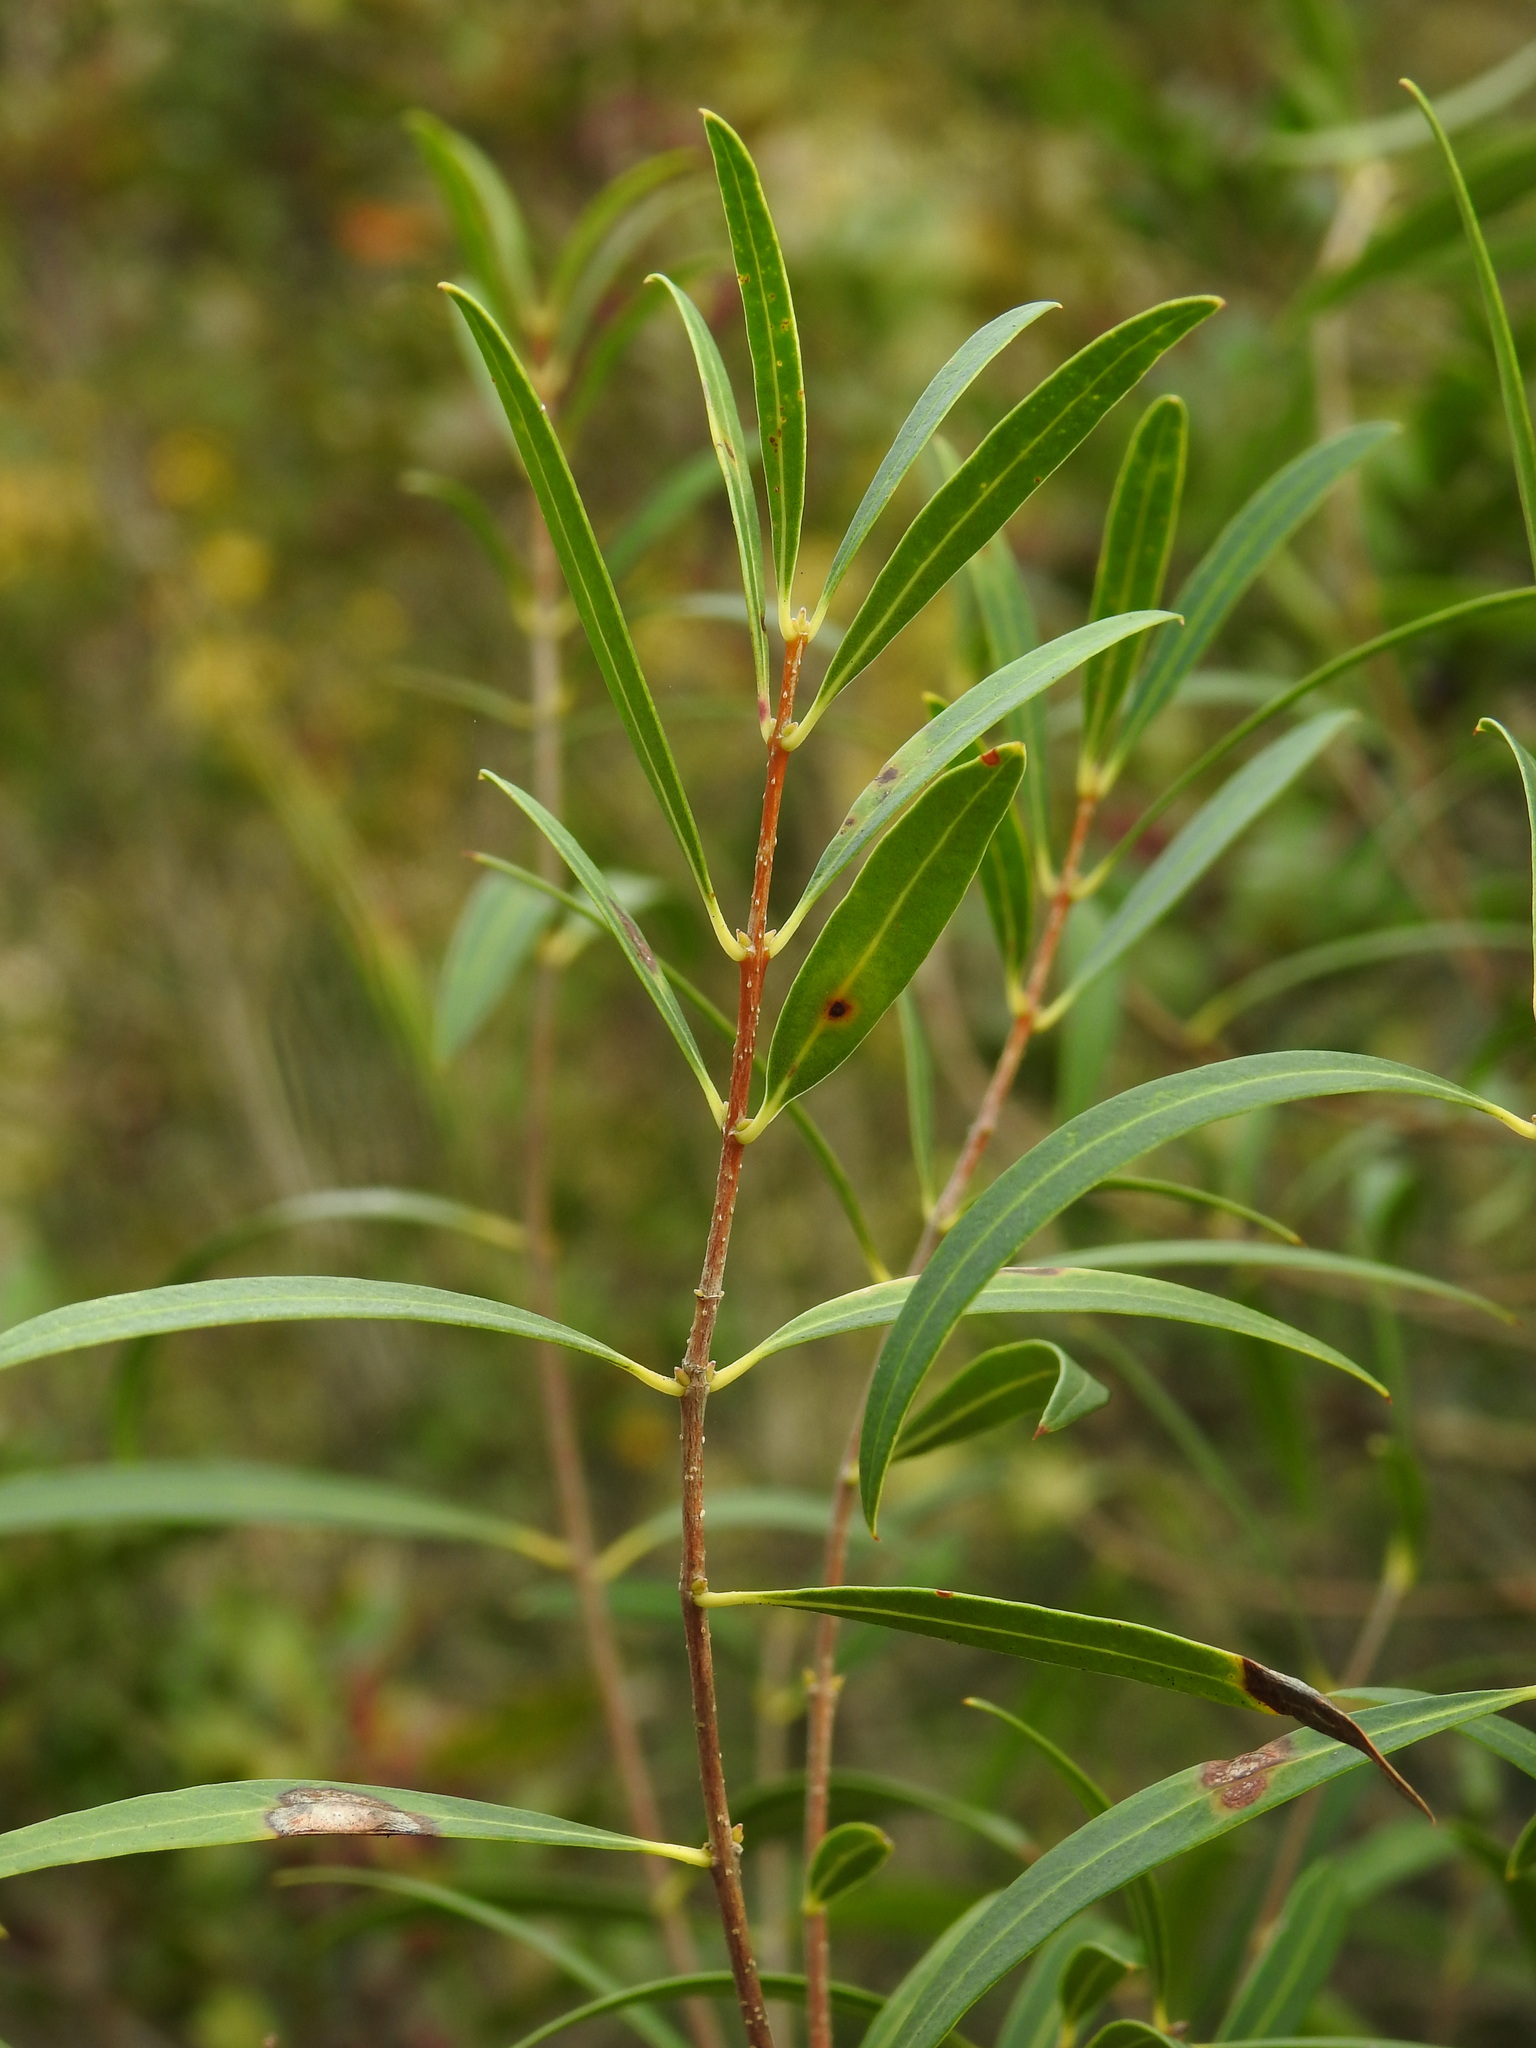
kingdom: Plantae
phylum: Tracheophyta
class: Magnoliopsida
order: Lamiales
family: Oleaceae
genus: Phillyrea
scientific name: Phillyrea angustifolia
